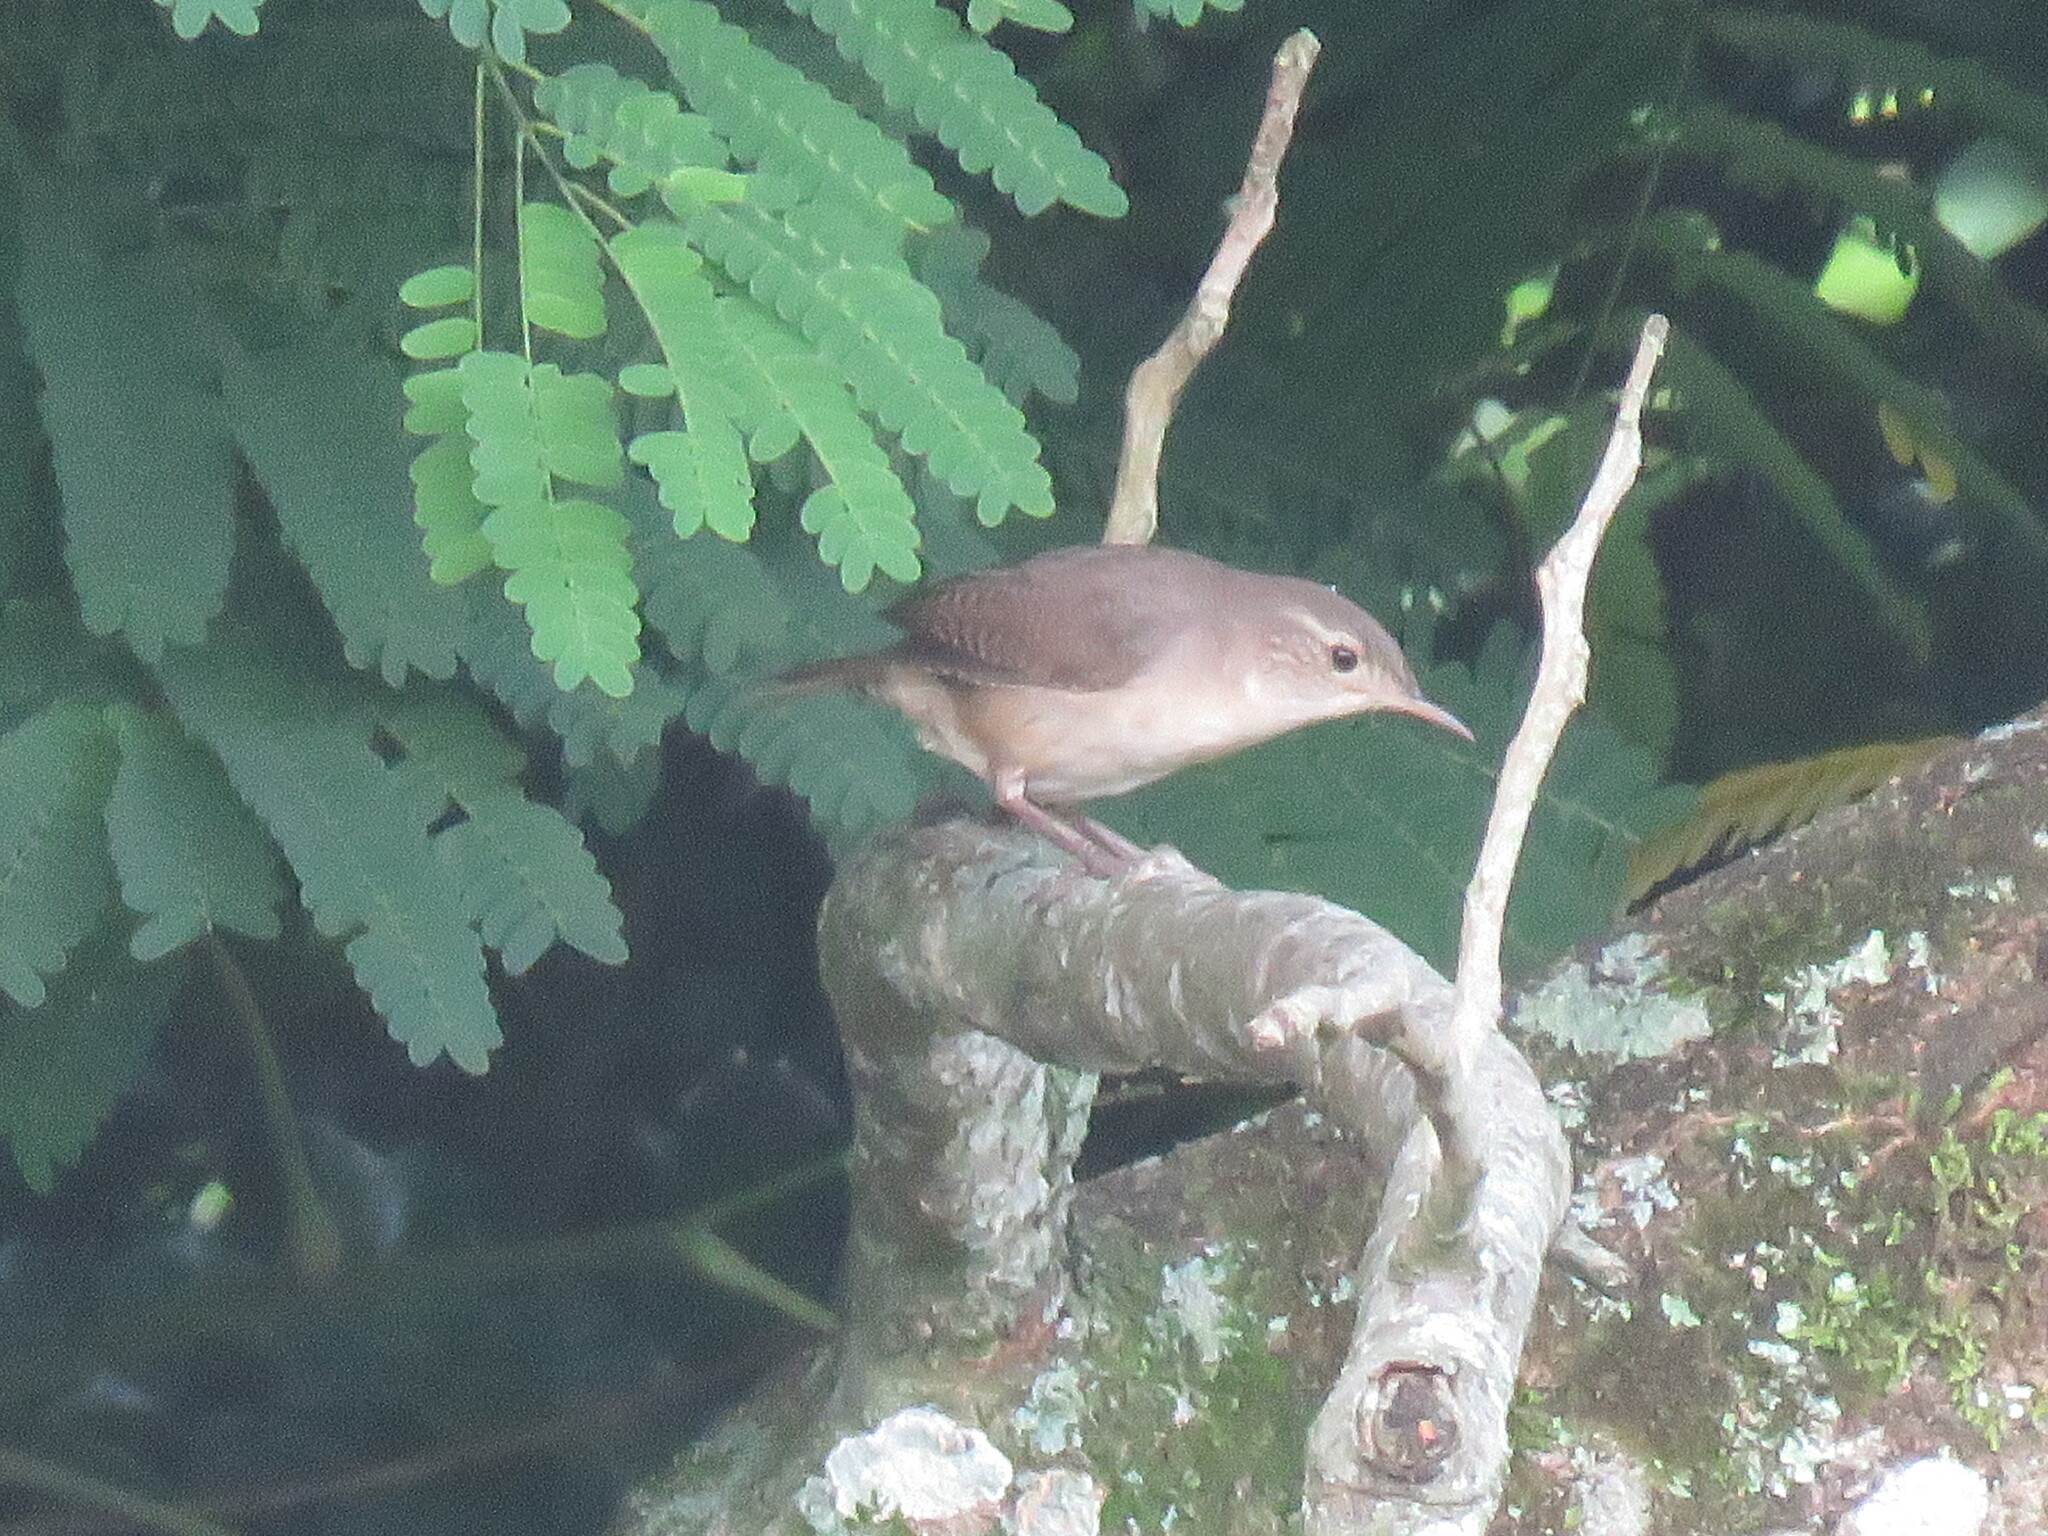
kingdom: Animalia
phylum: Chordata
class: Aves
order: Passeriformes
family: Troglodytidae
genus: Troglodytes
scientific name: Troglodytes aedon
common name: House wren
